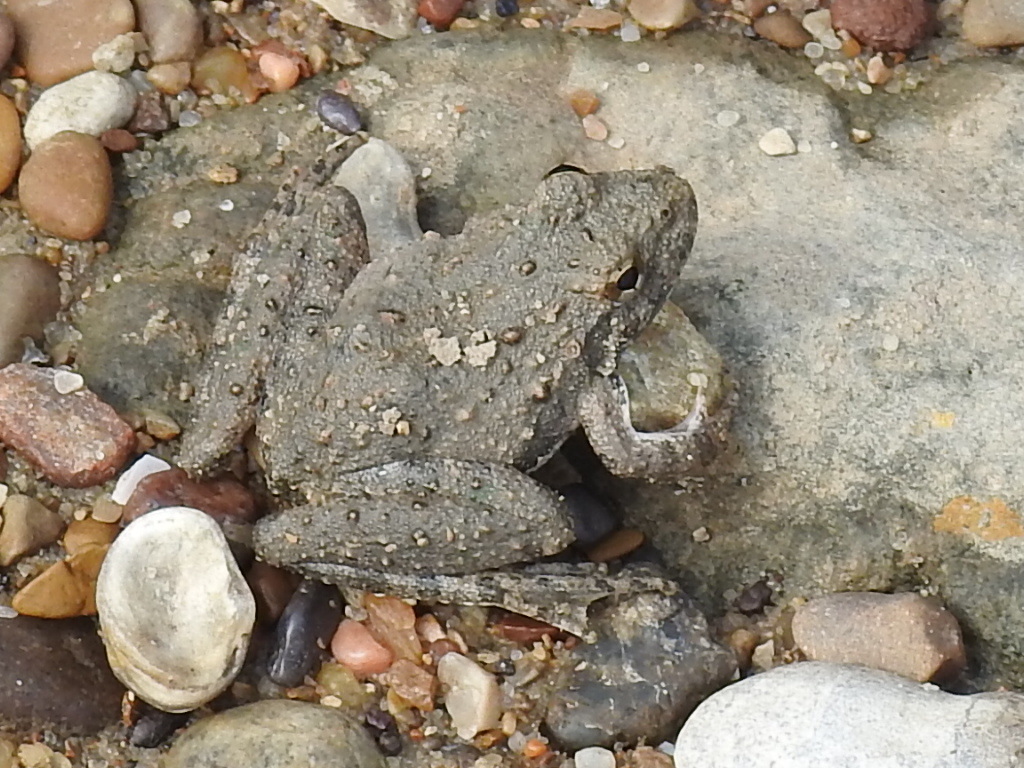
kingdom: Animalia
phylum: Chordata
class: Amphibia
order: Anura
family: Hylidae
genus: Acris
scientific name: Acris blanchardi
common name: Blanchard's cricket frog
